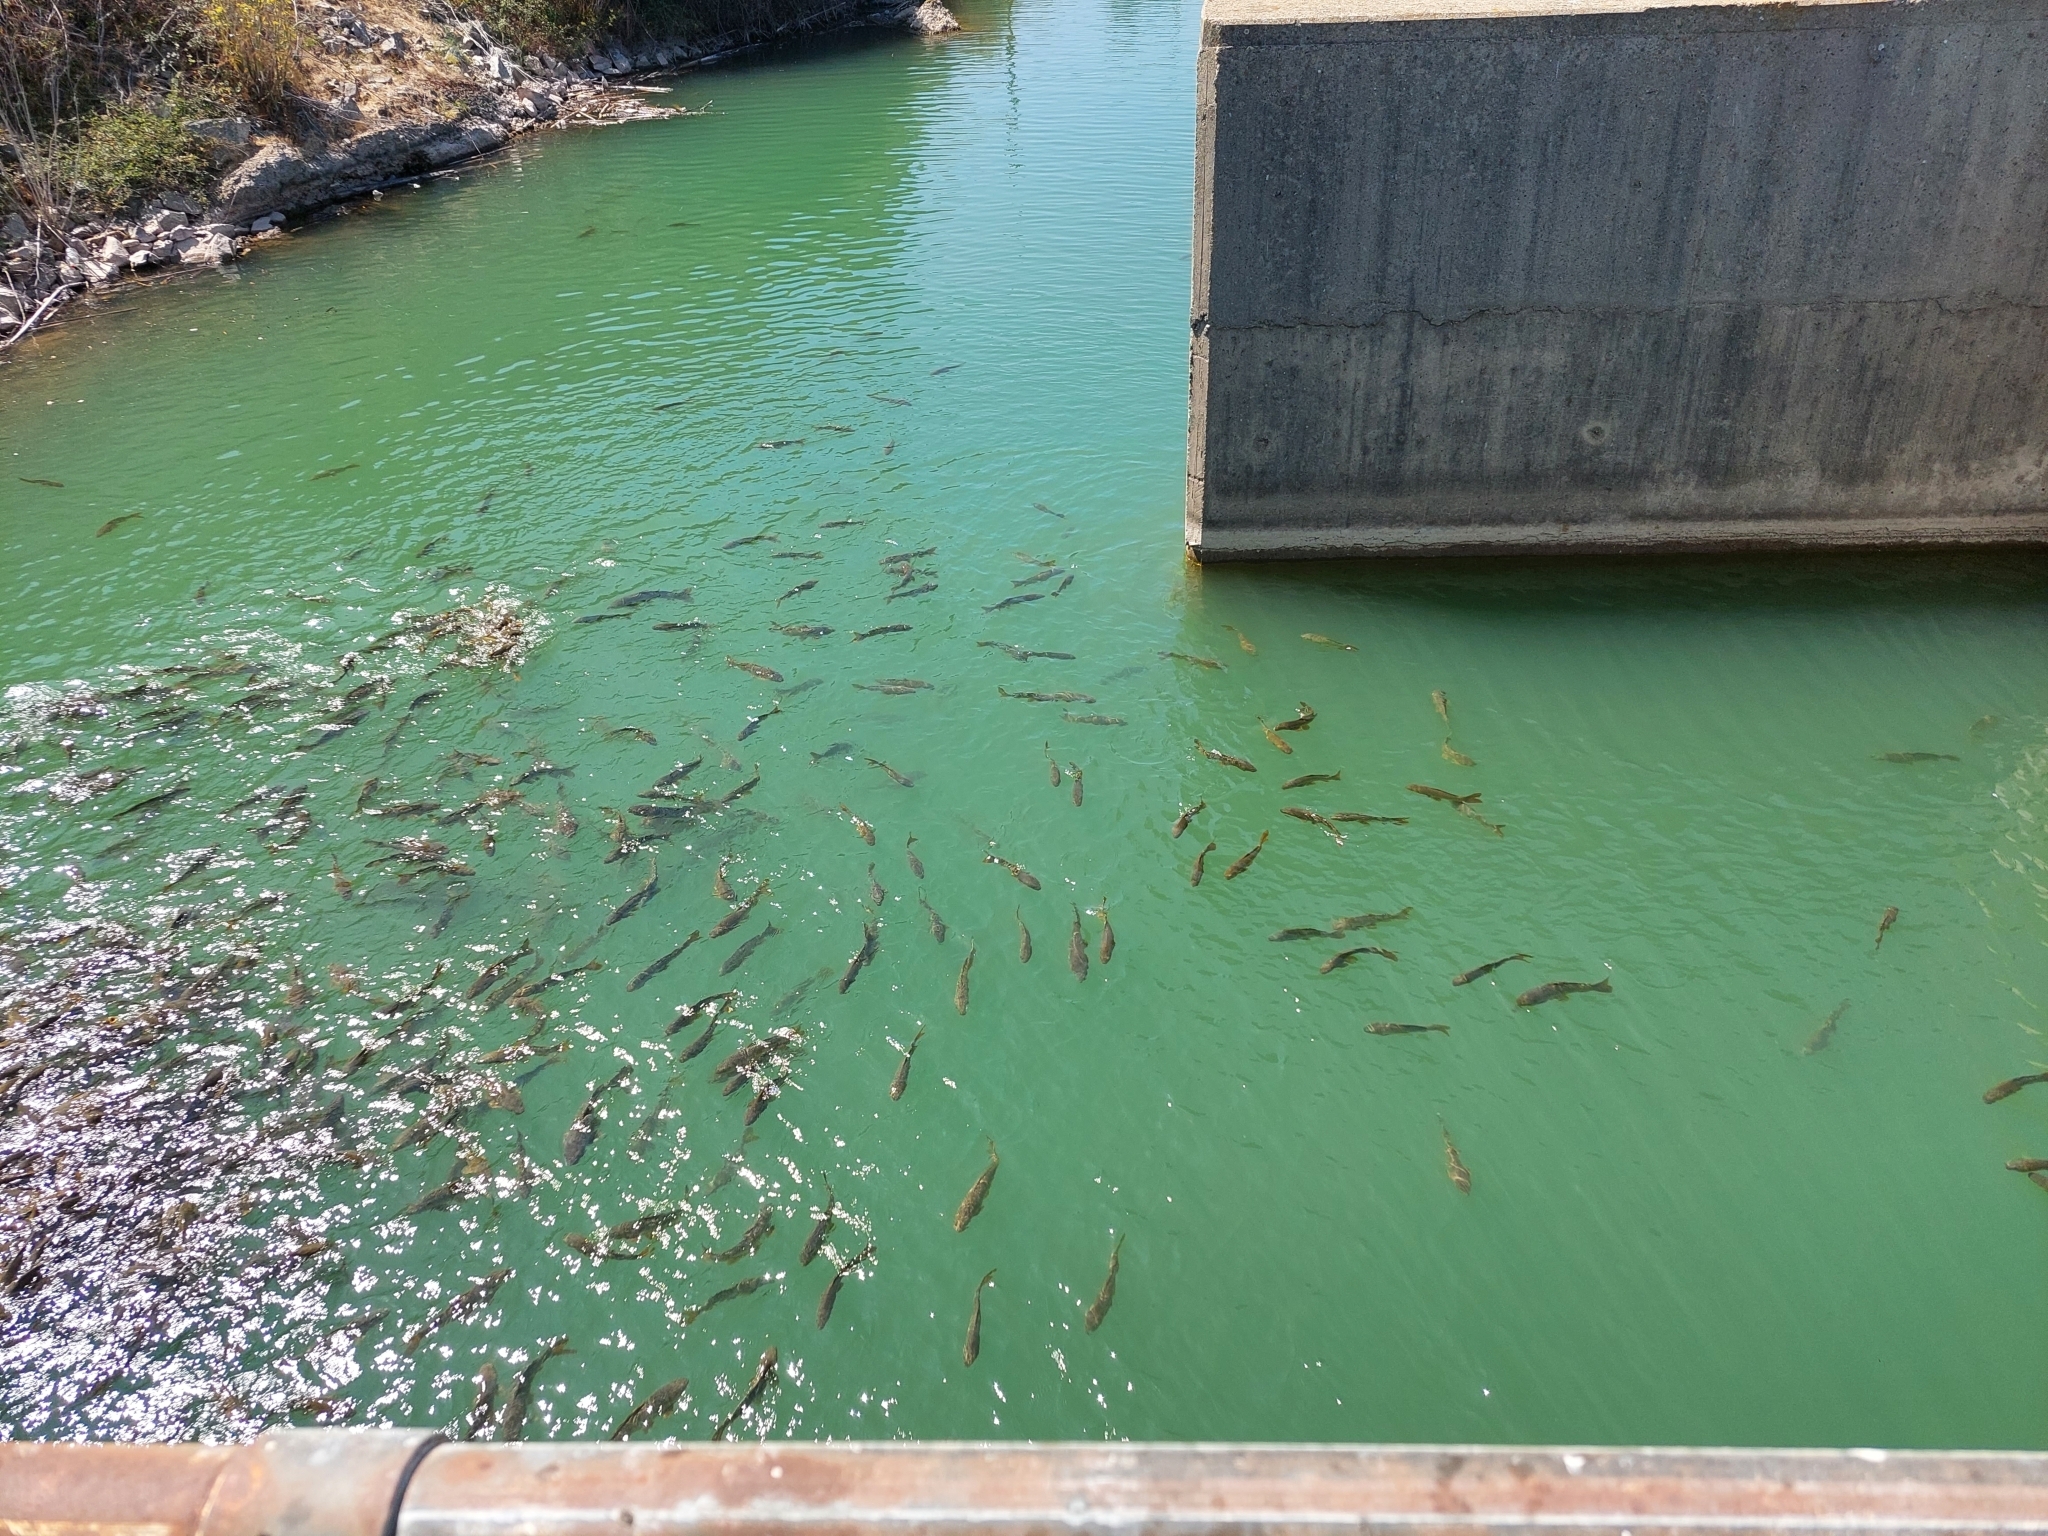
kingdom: Animalia
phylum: Chordata
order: Cypriniformes
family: Cyprinidae
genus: Cyprinus
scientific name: Cyprinus carpio
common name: Common carp
